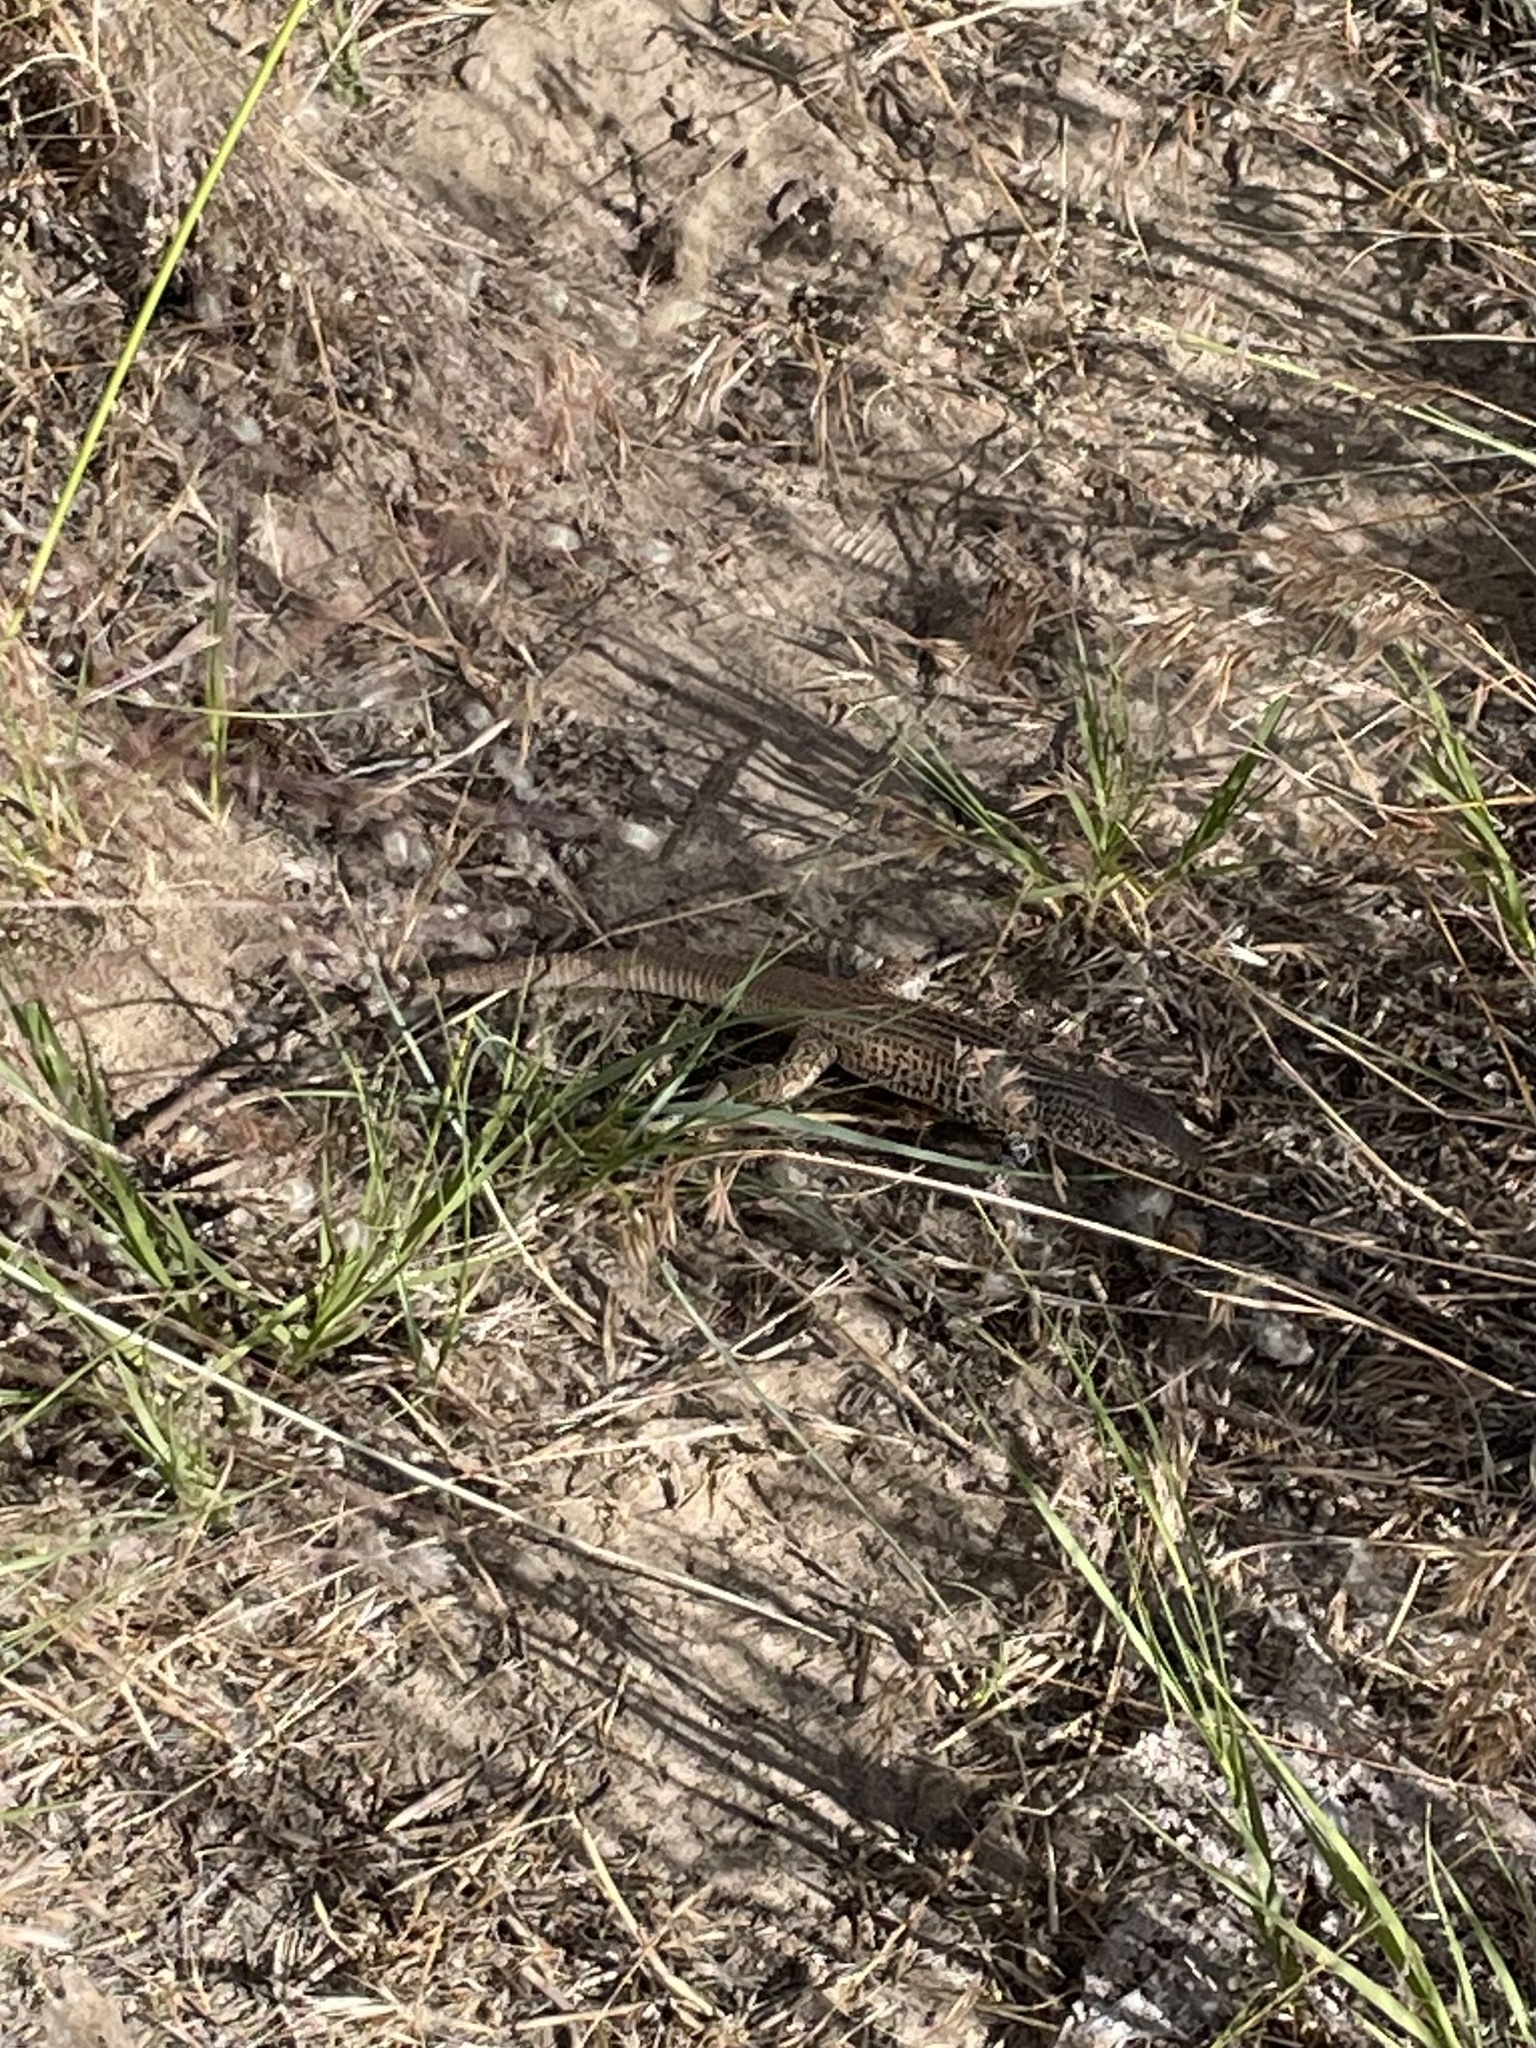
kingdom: Animalia
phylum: Chordata
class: Squamata
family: Teiidae
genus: Aspidoscelis
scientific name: Aspidoscelis tigris
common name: Tiger whiptail
